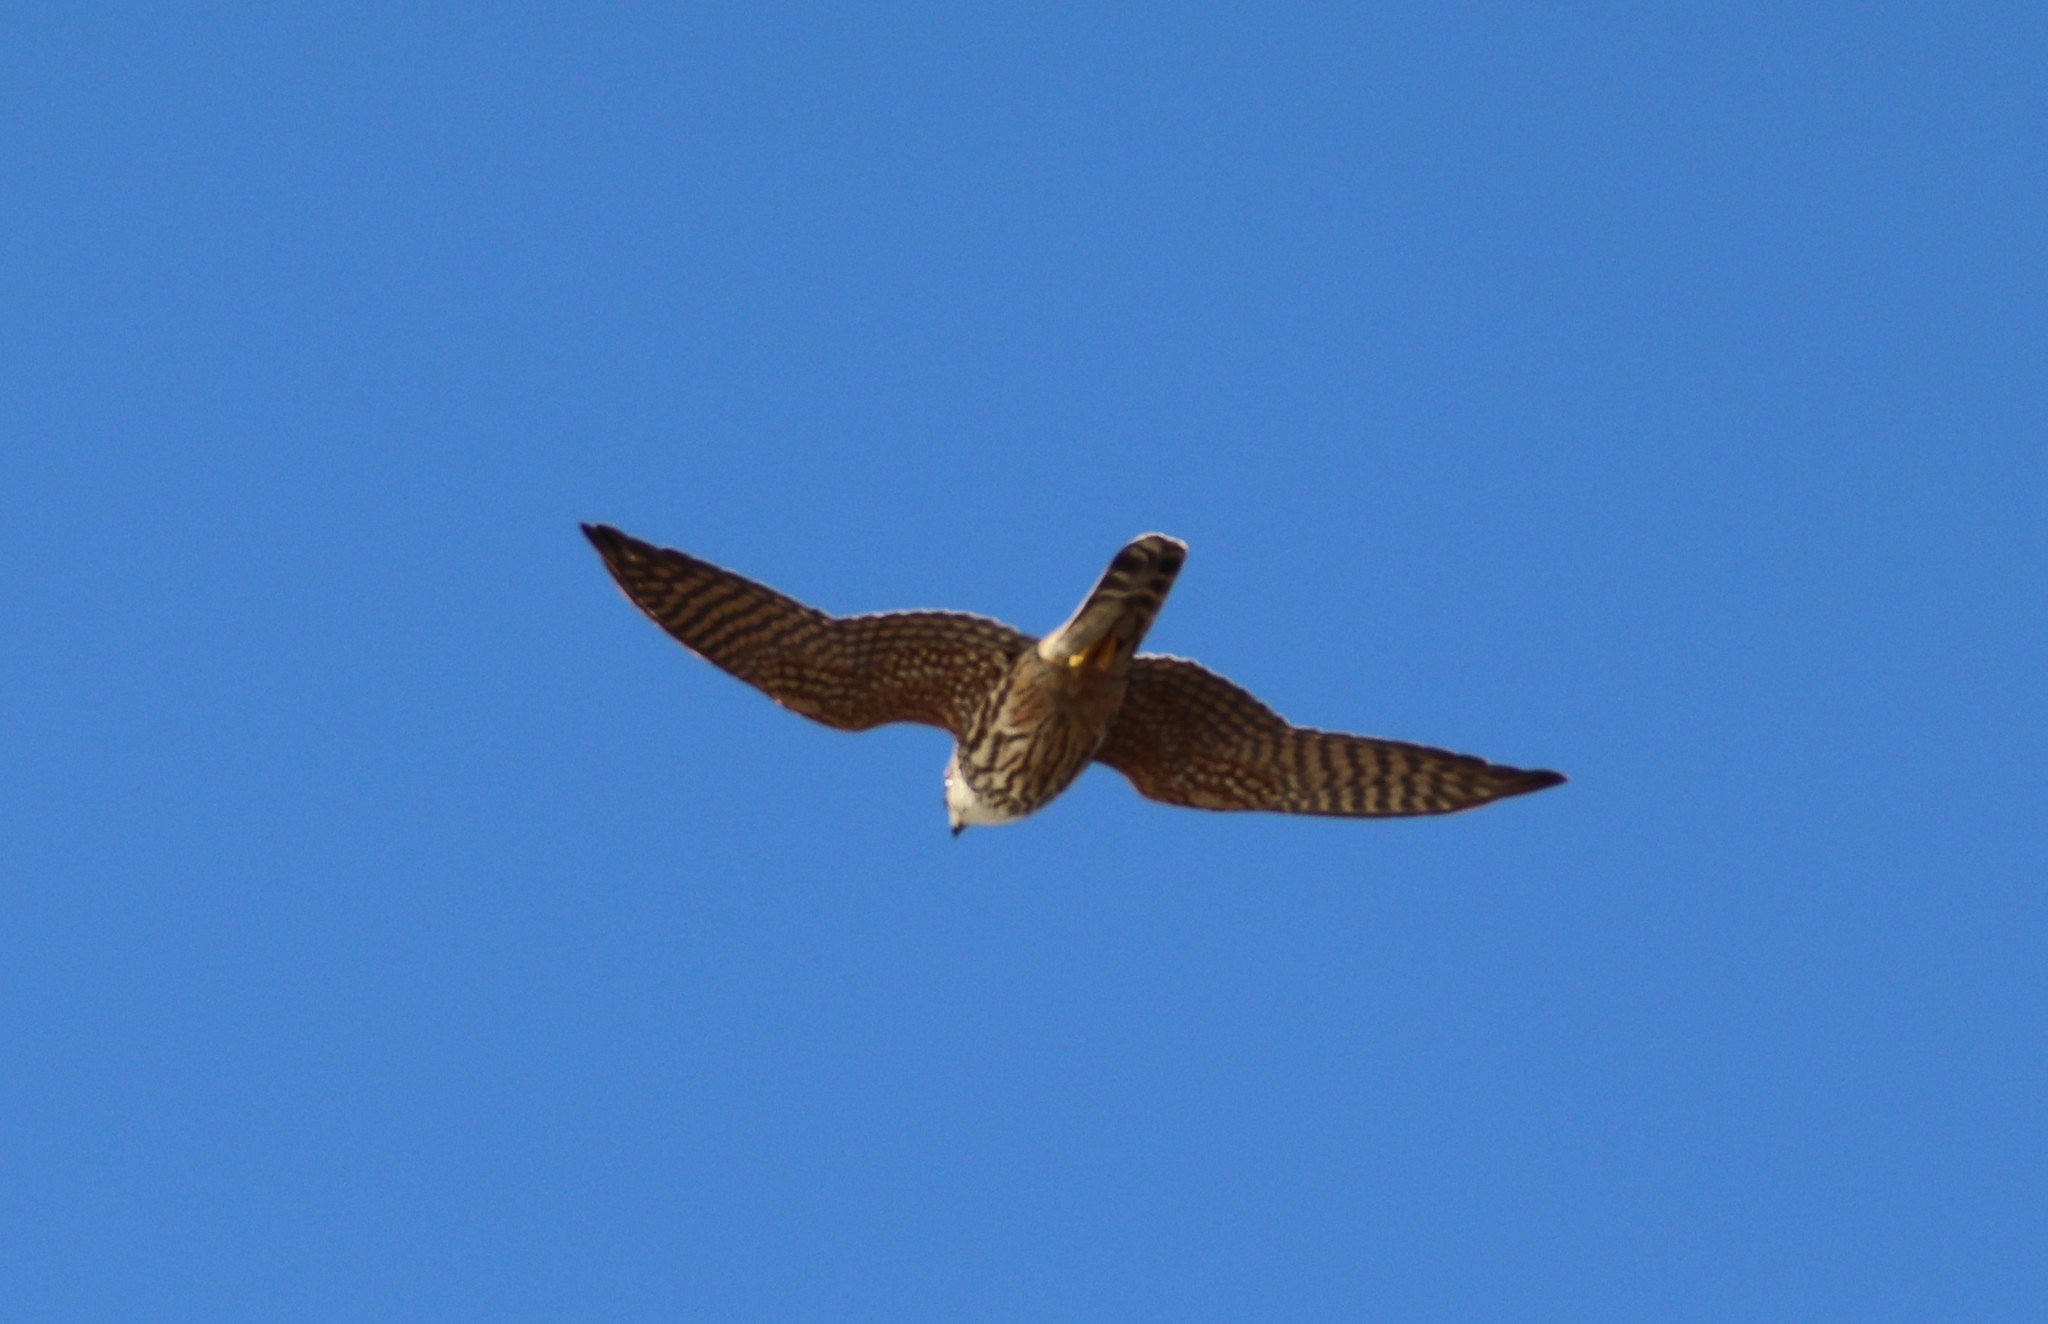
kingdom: Animalia
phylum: Chordata
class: Aves
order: Falconiformes
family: Falconidae
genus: Falco
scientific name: Falco columbarius
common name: Merlin
